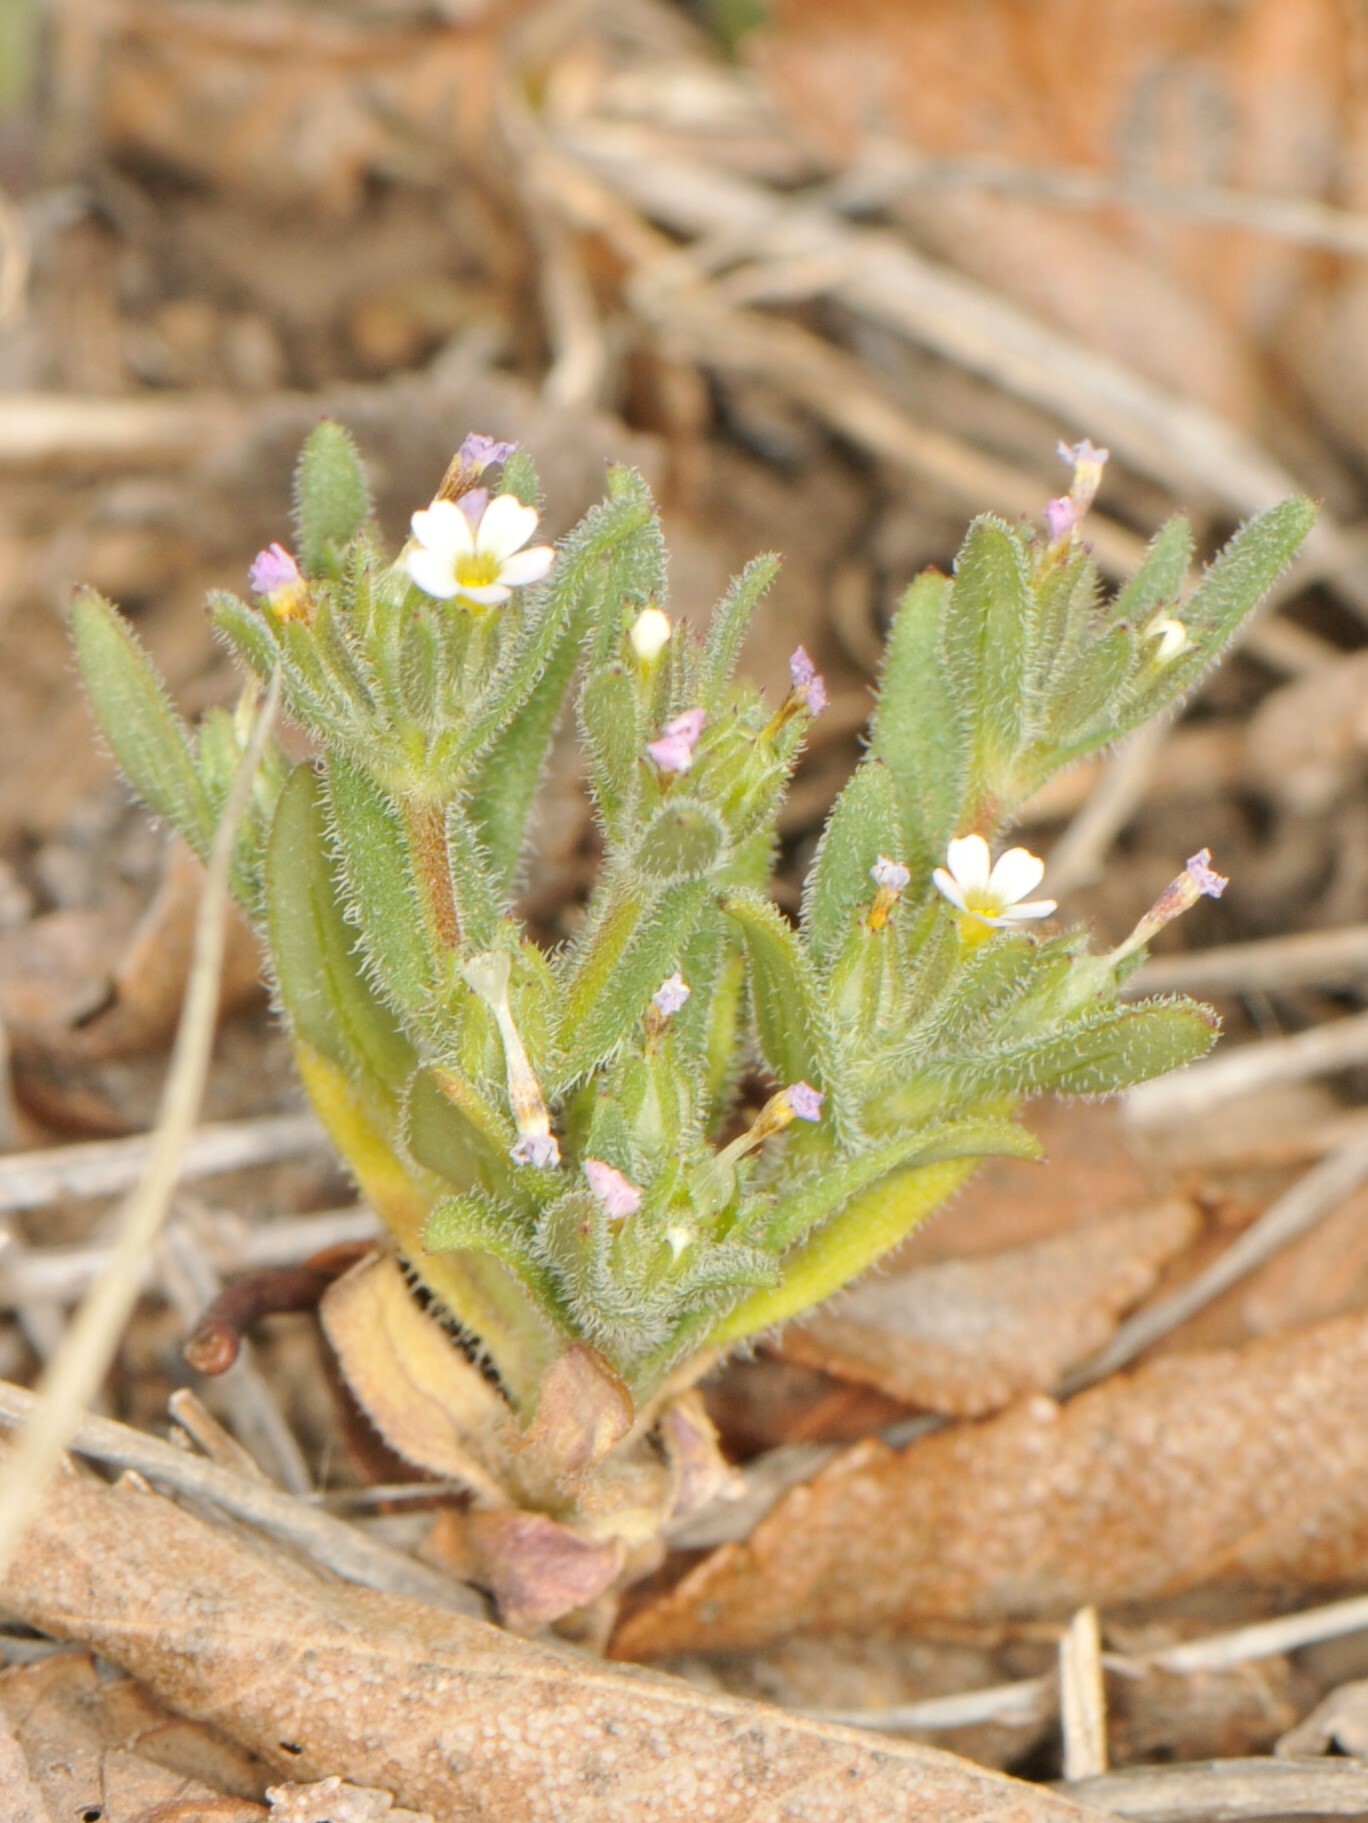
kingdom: Plantae
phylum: Tracheophyta
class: Magnoliopsida
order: Ericales
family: Polemoniaceae
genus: Phlox
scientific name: Phlox gracilis
